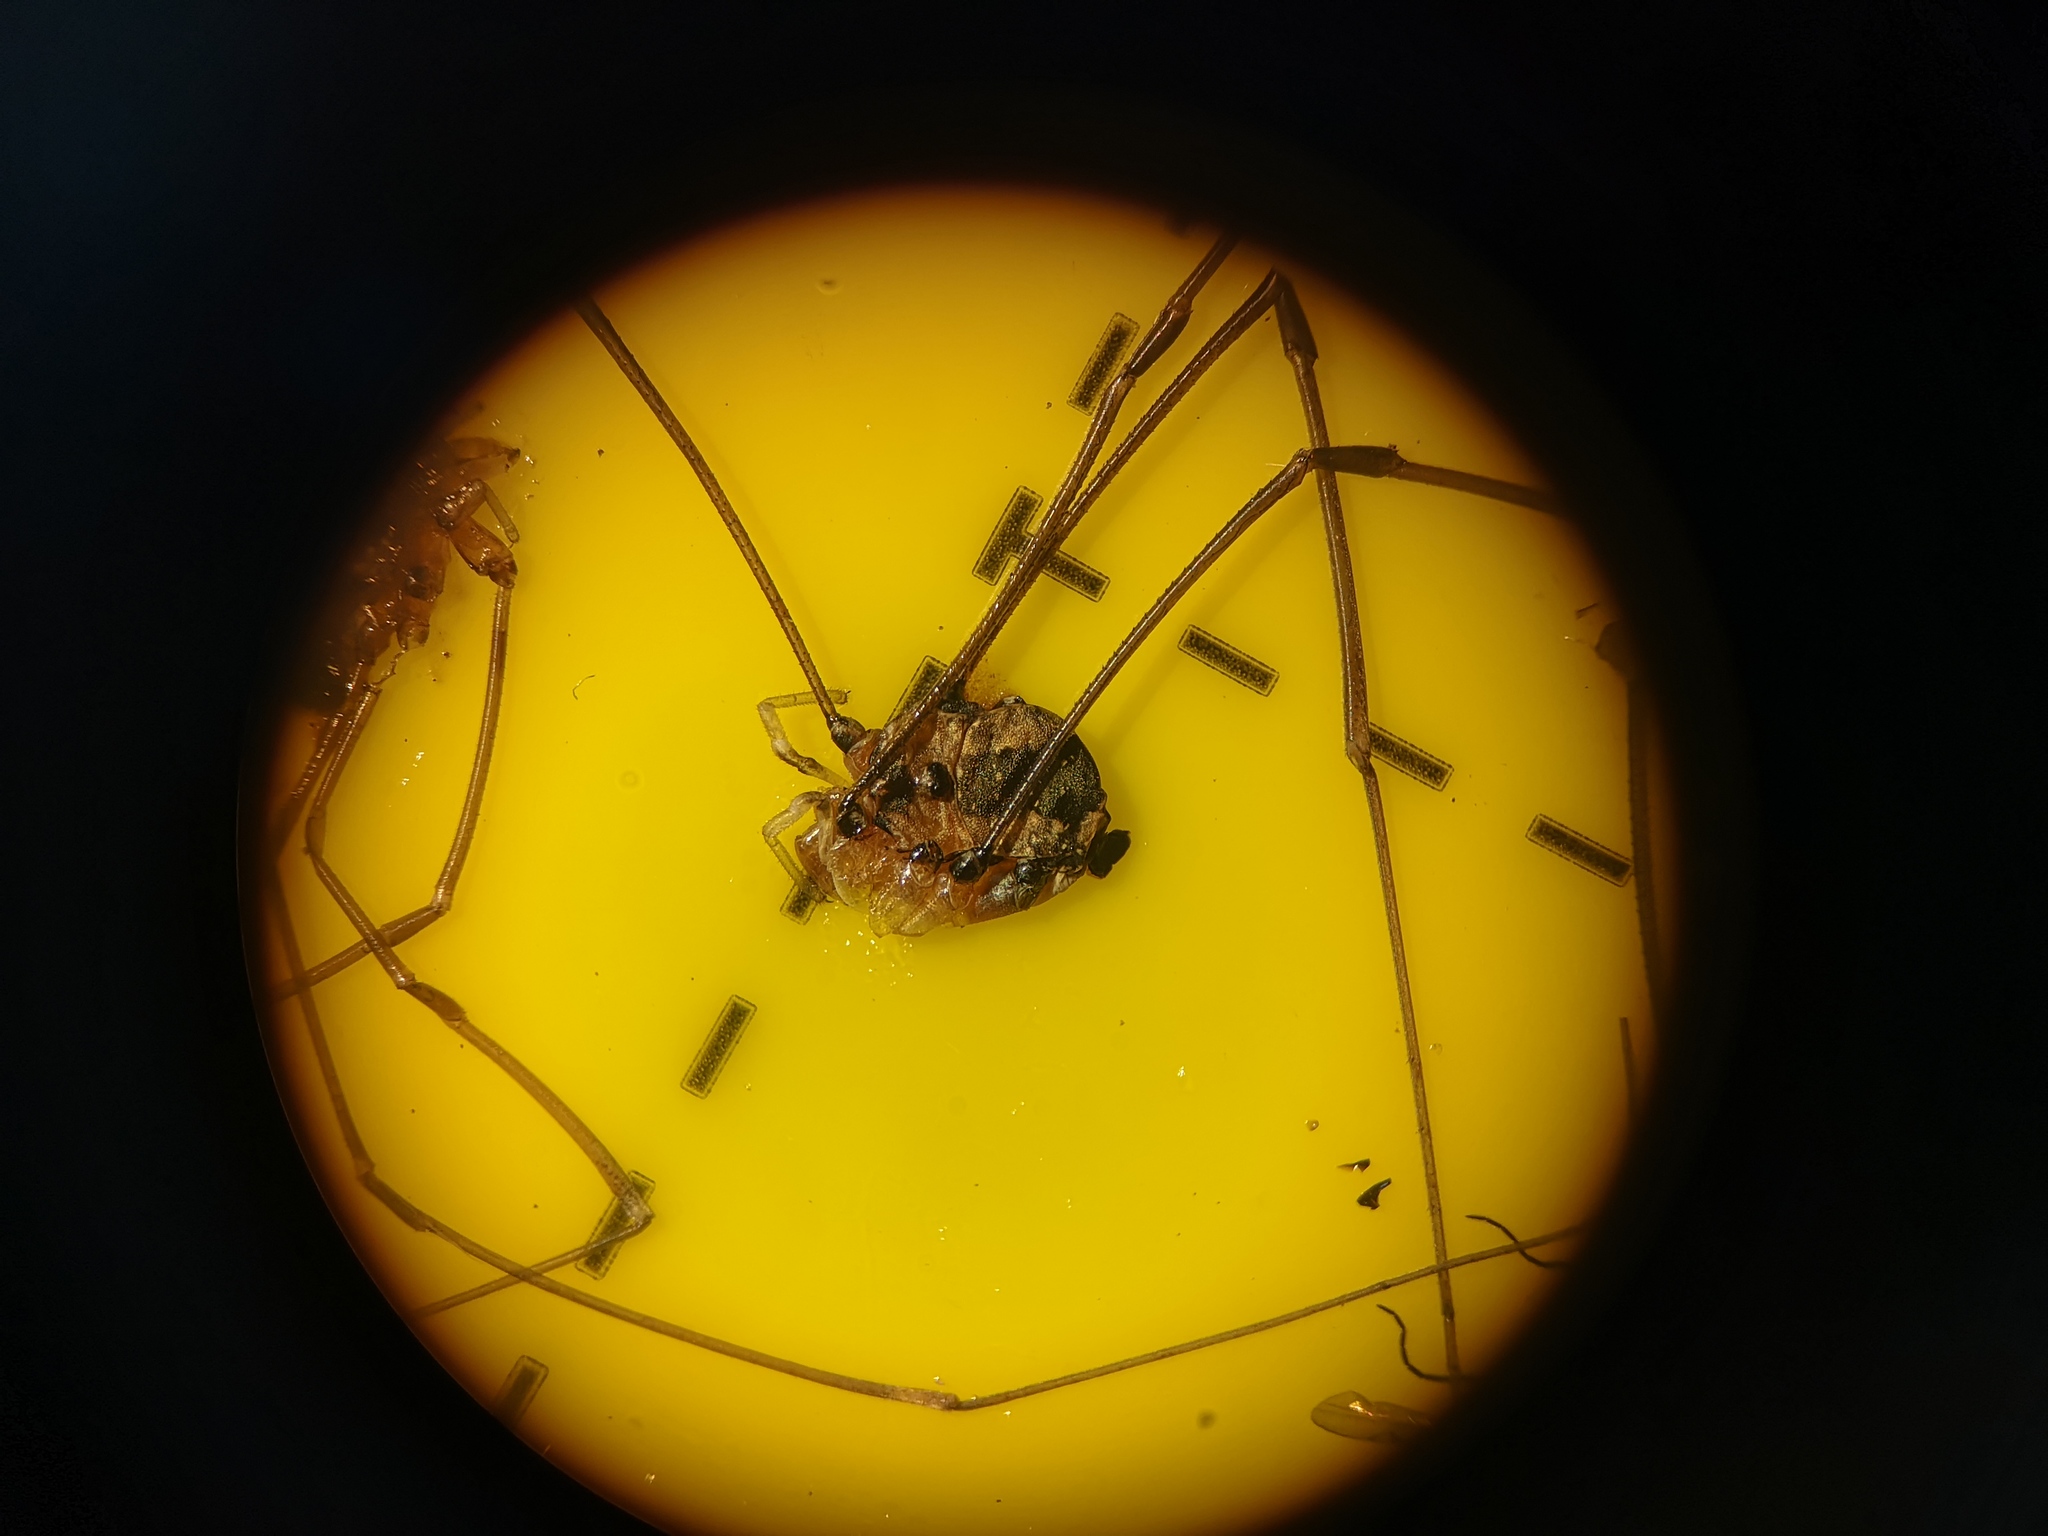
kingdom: Animalia
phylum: Arthropoda
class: Arachnida
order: Opiliones
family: Sclerosomatidae
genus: Leiobunum
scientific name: Leiobunum rotundum
